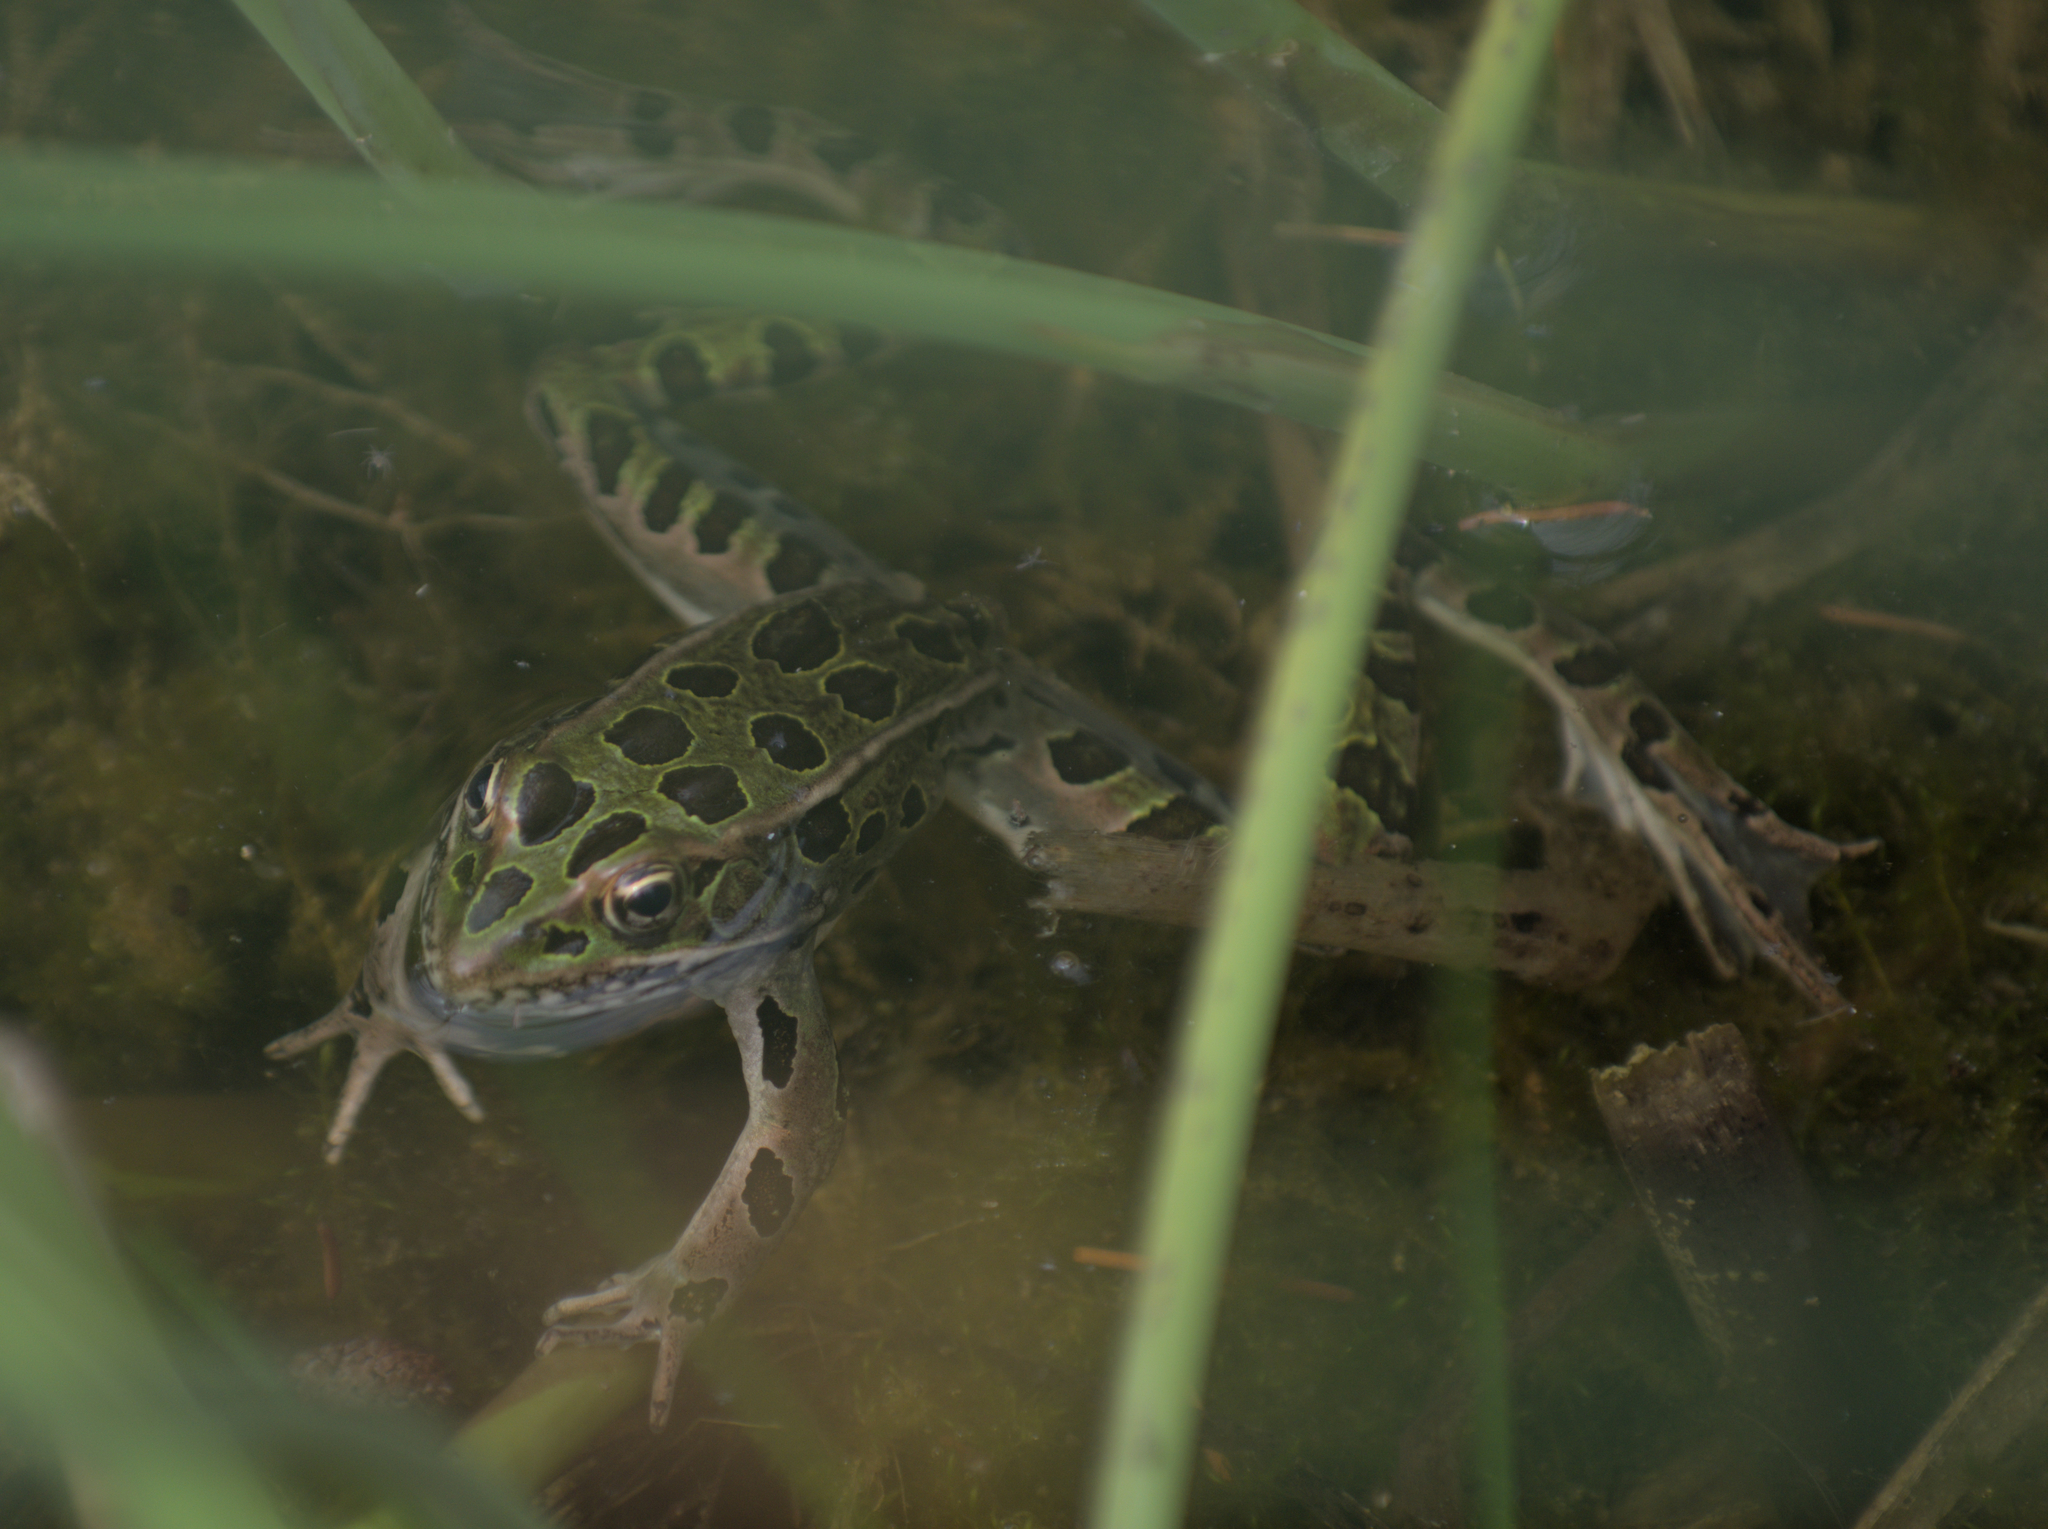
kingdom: Animalia
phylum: Chordata
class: Amphibia
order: Anura
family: Ranidae
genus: Lithobates
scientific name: Lithobates pipiens
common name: Northern leopard frog
